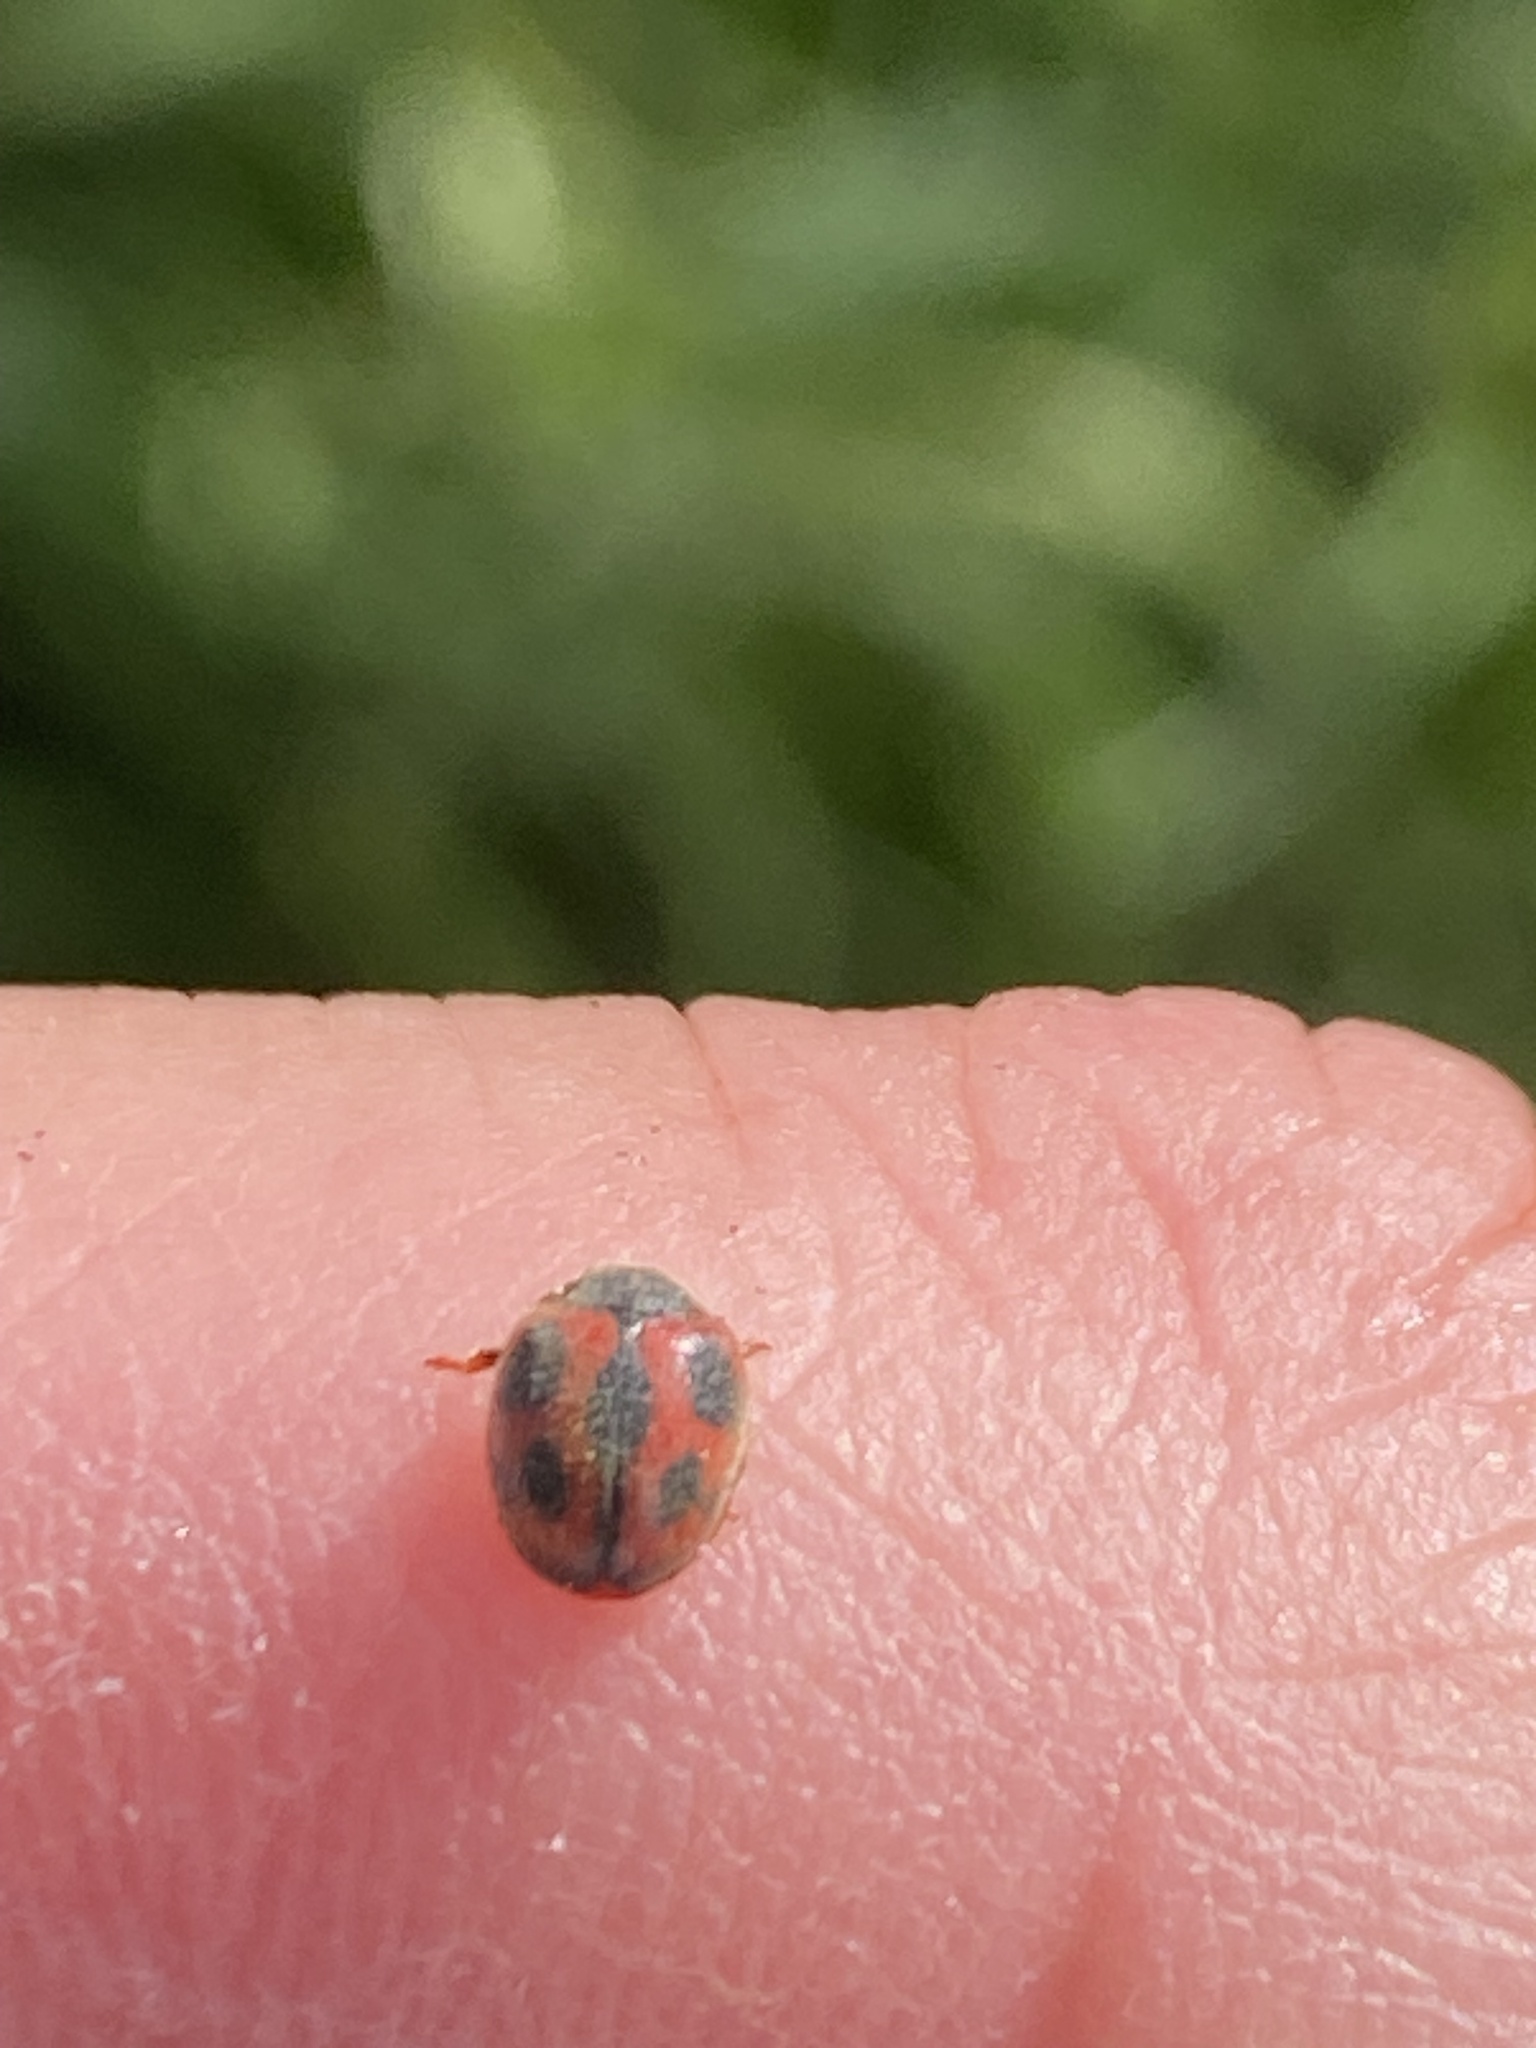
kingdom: Animalia
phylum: Arthropoda
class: Insecta
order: Coleoptera
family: Coccinellidae
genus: Novius
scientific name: Novius cardinalis
